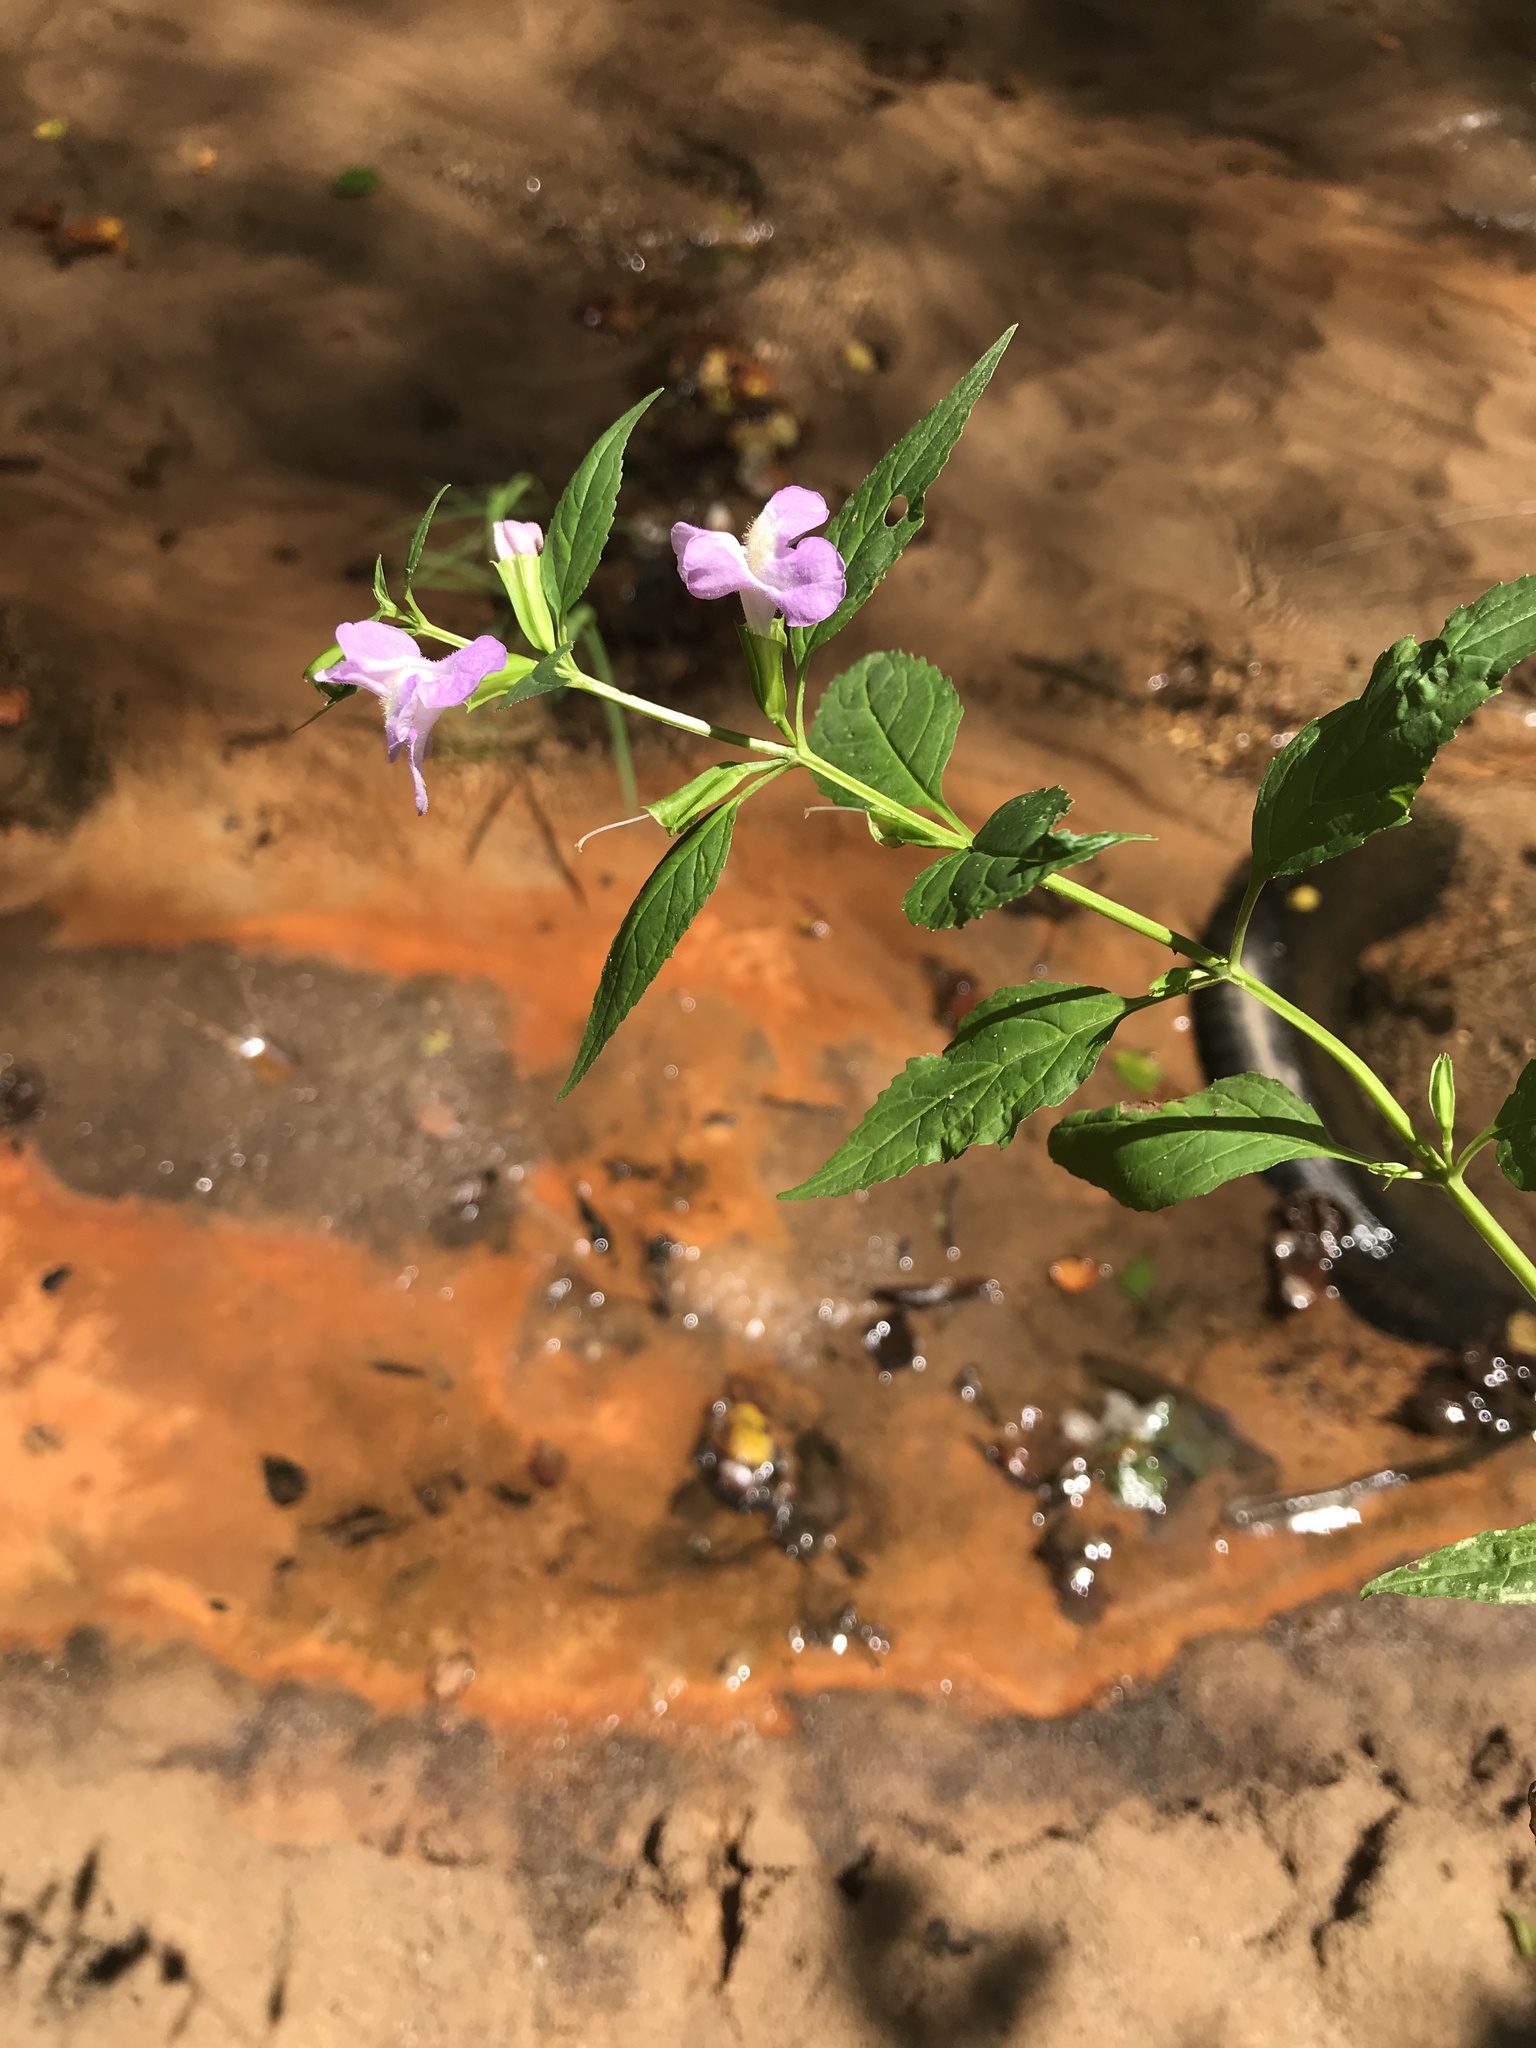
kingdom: Plantae
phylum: Tracheophyta
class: Magnoliopsida
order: Lamiales
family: Phrymaceae
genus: Mimulus
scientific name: Mimulus alatus
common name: Sharp-wing monkey-flower
